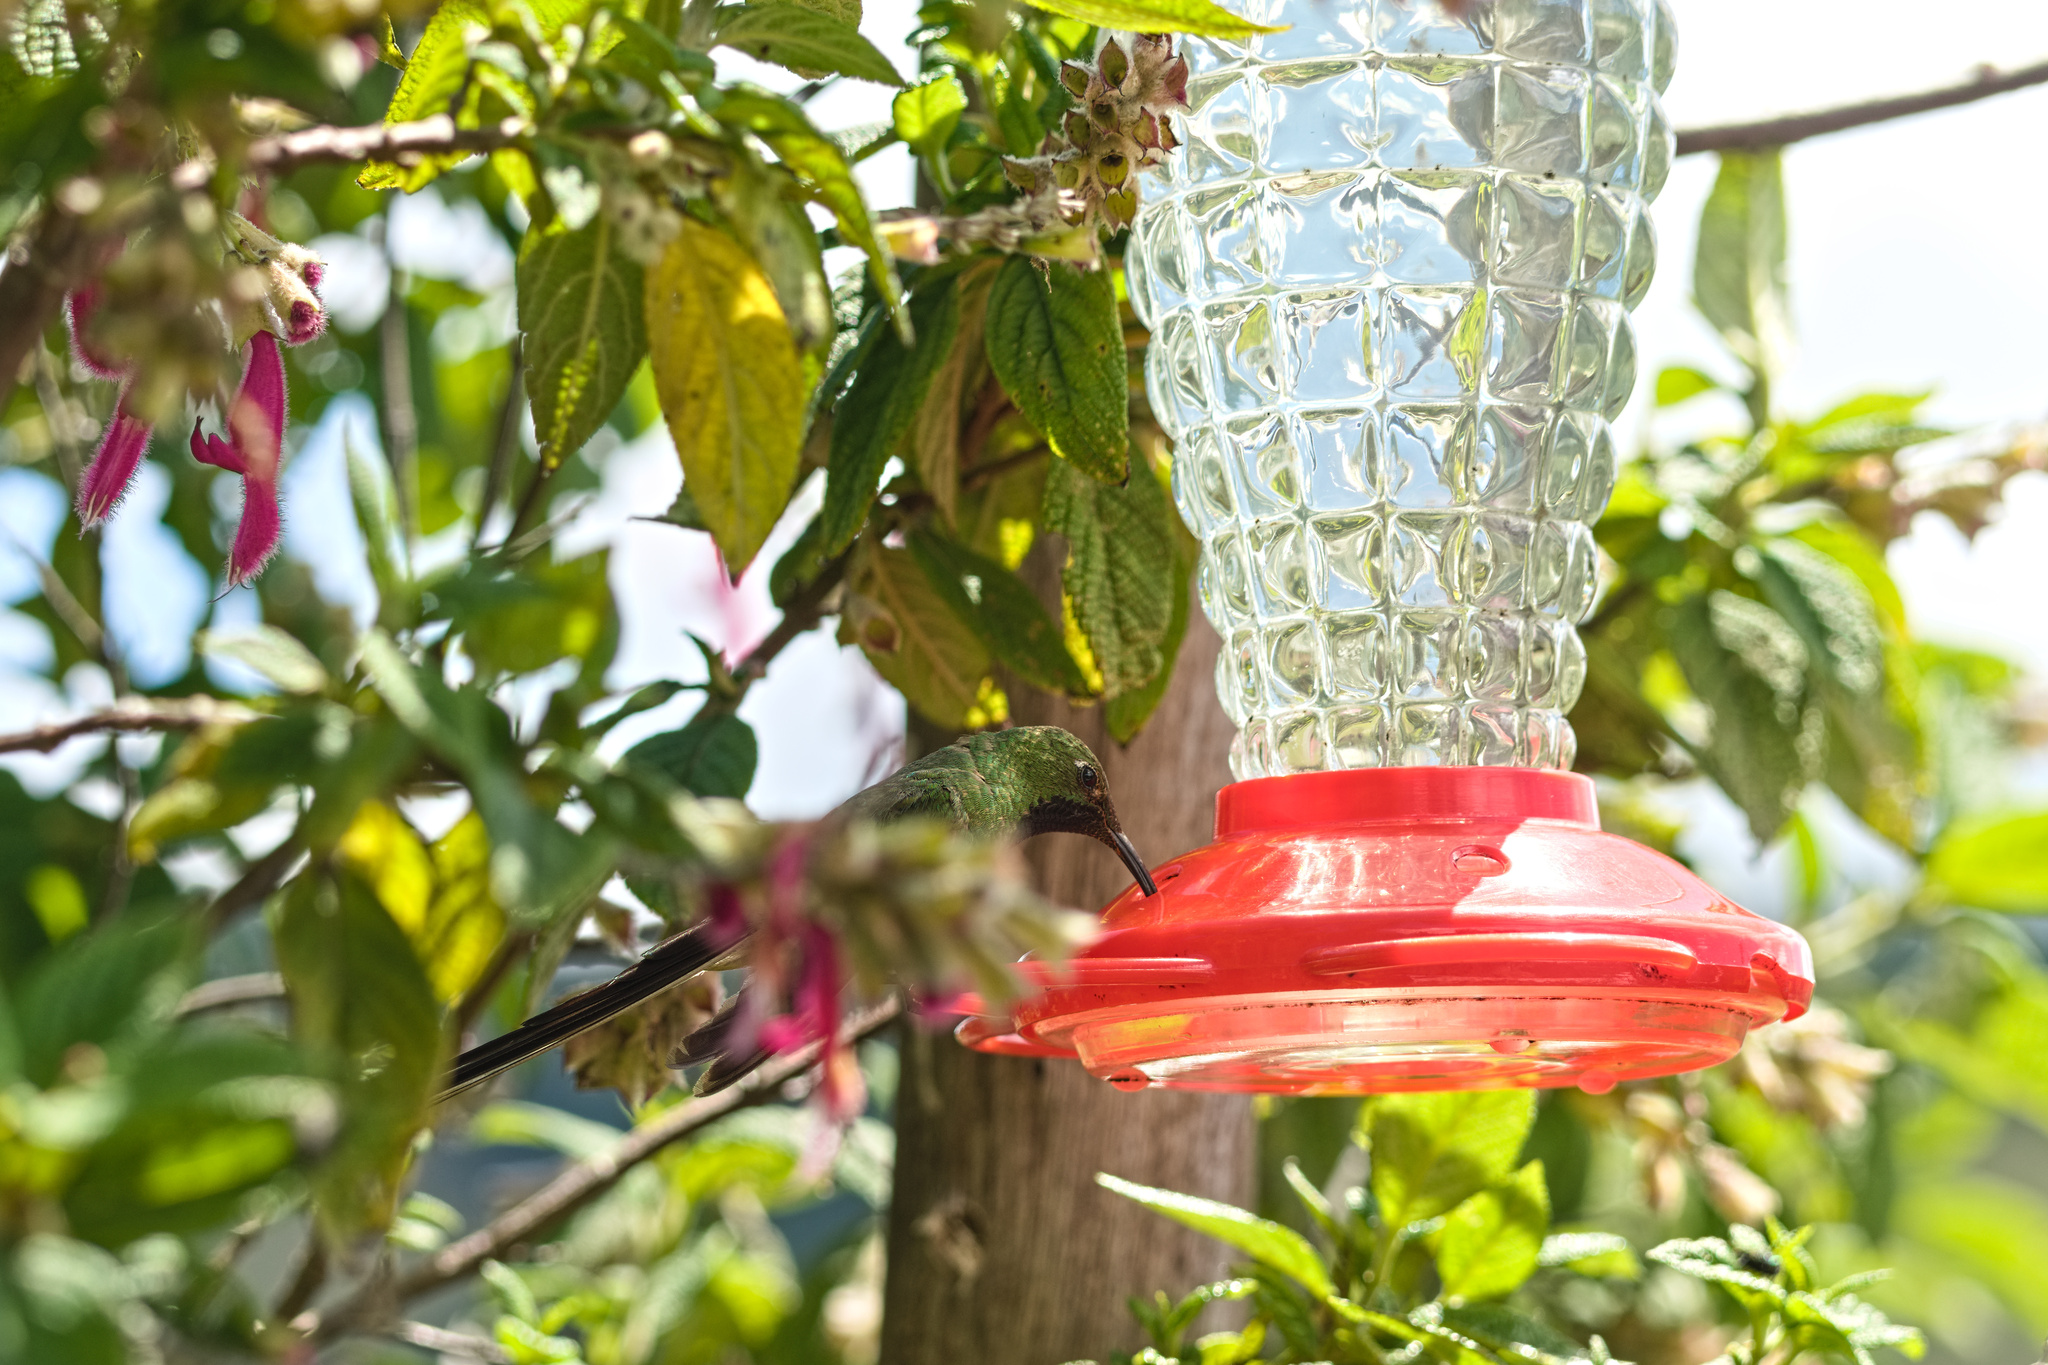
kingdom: Animalia
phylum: Chordata
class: Aves
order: Apodiformes
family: Trochilidae
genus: Lesbia
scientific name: Lesbia victoriae
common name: Black-tailed trainbearer
